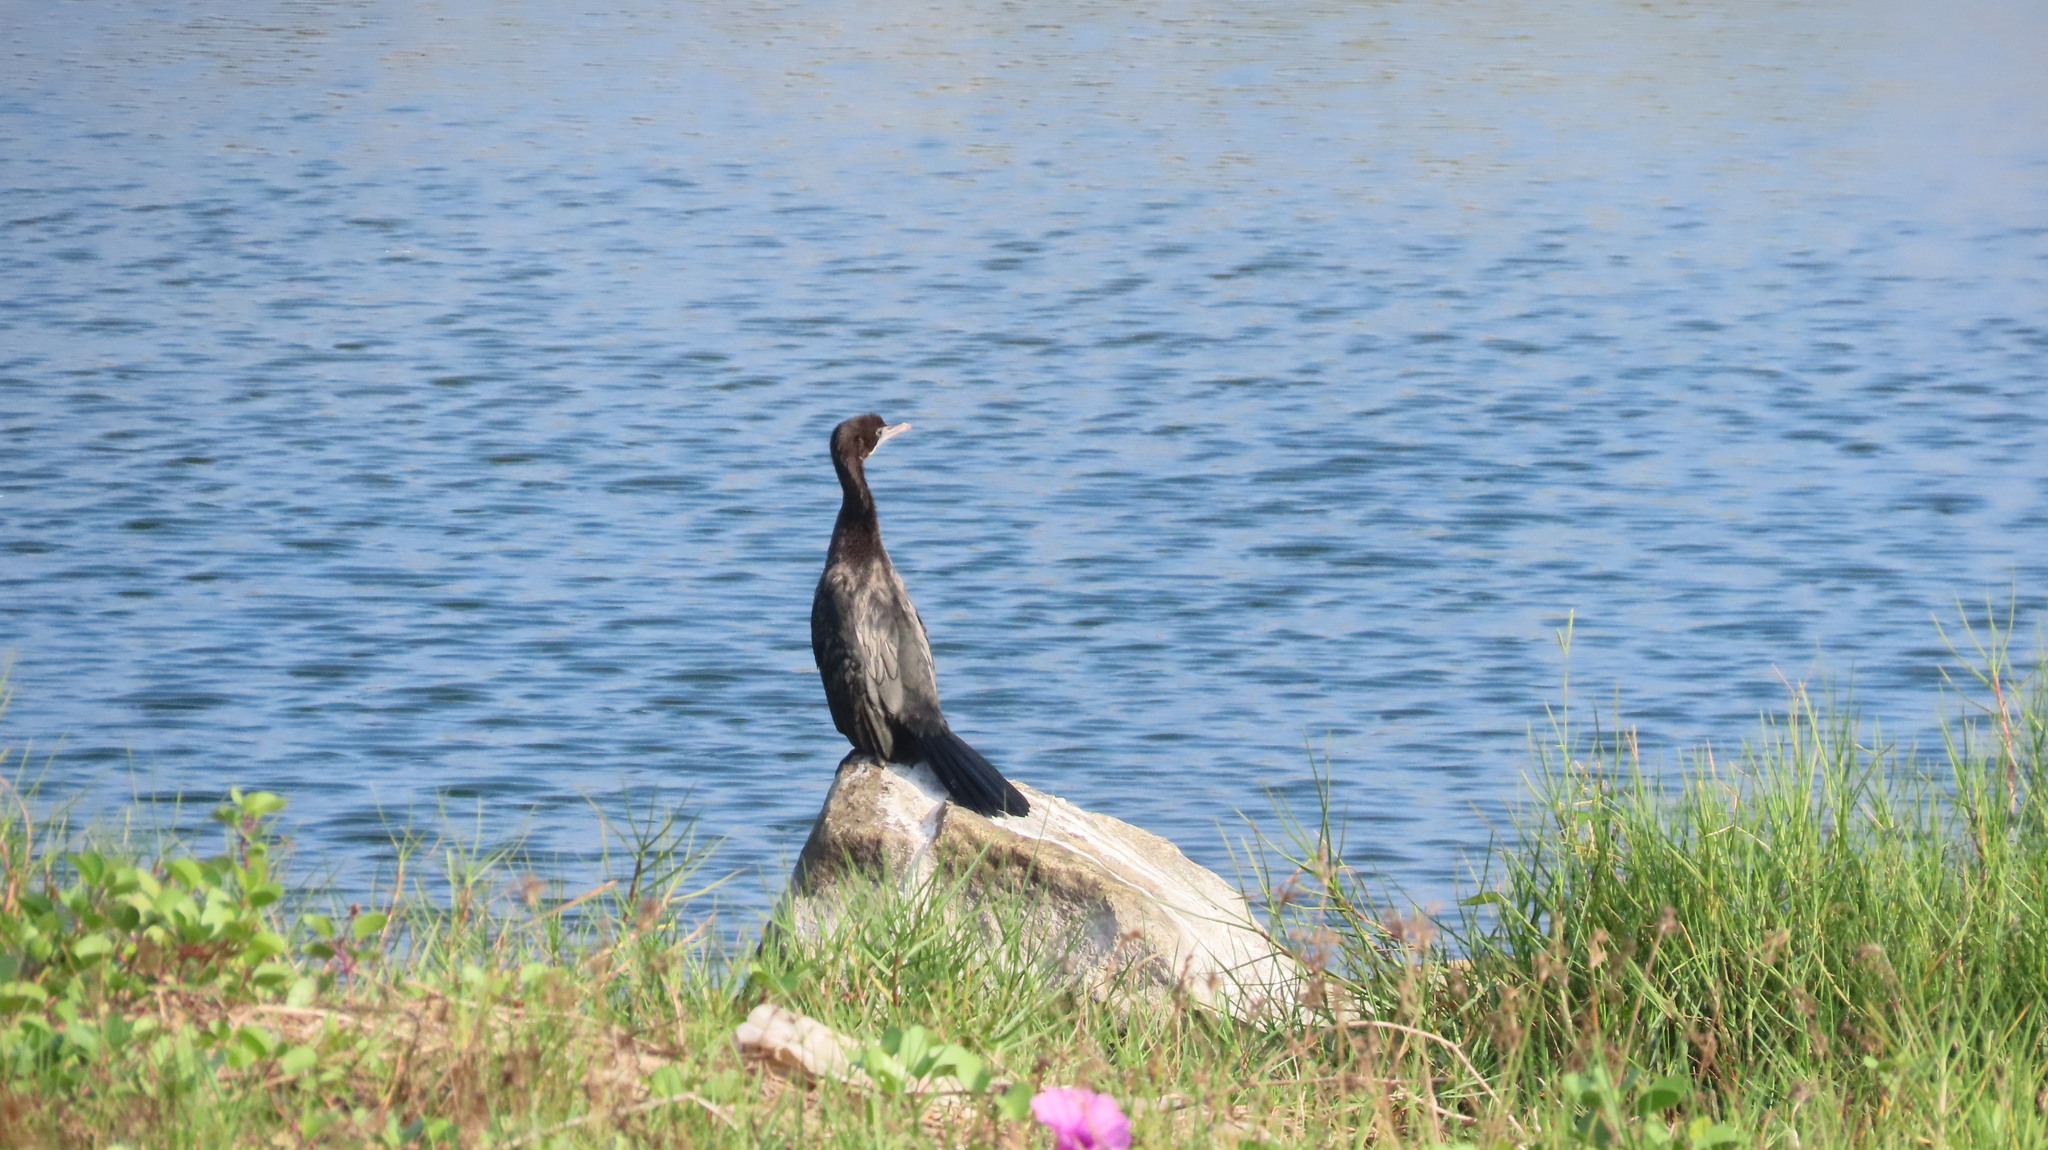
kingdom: Animalia
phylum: Chordata
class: Aves
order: Suliformes
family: Phalacrocoracidae
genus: Microcarbo
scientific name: Microcarbo niger
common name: Little cormorant
